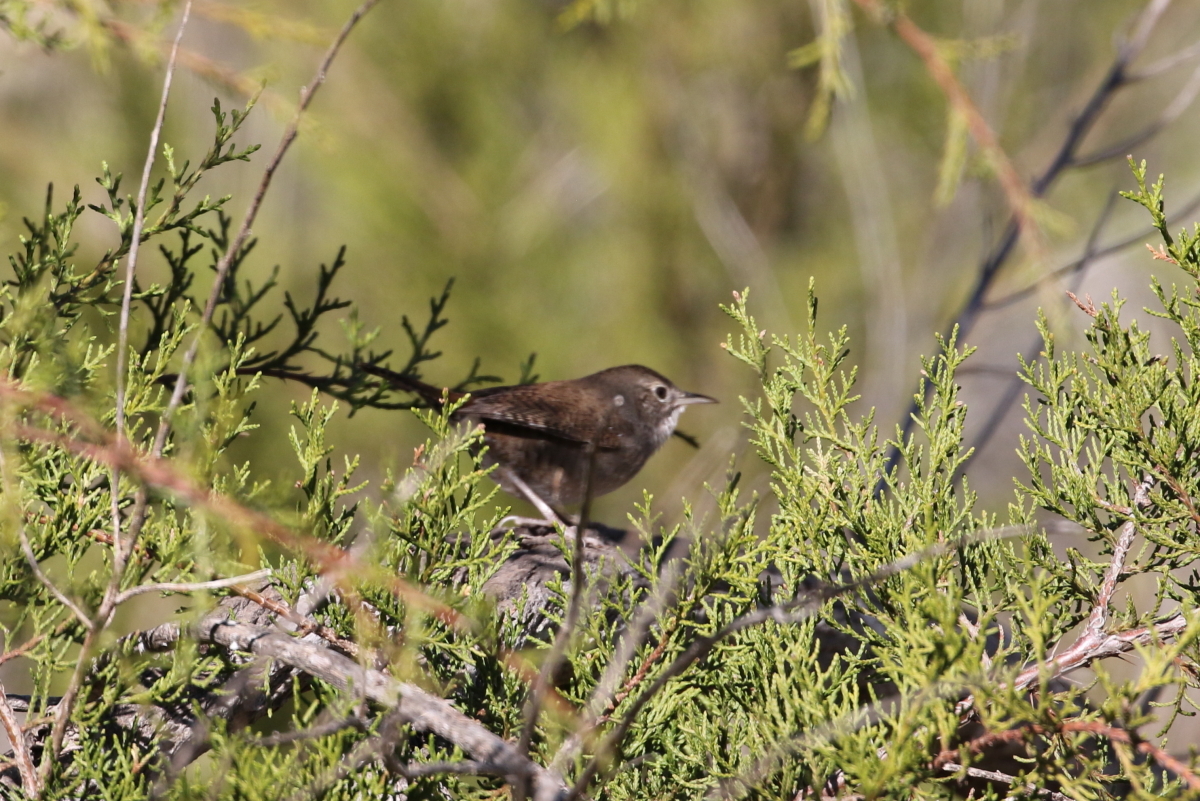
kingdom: Animalia
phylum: Chordata
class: Aves
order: Passeriformes
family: Troglodytidae
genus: Troglodytes
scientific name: Troglodytes aedon
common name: House wren
